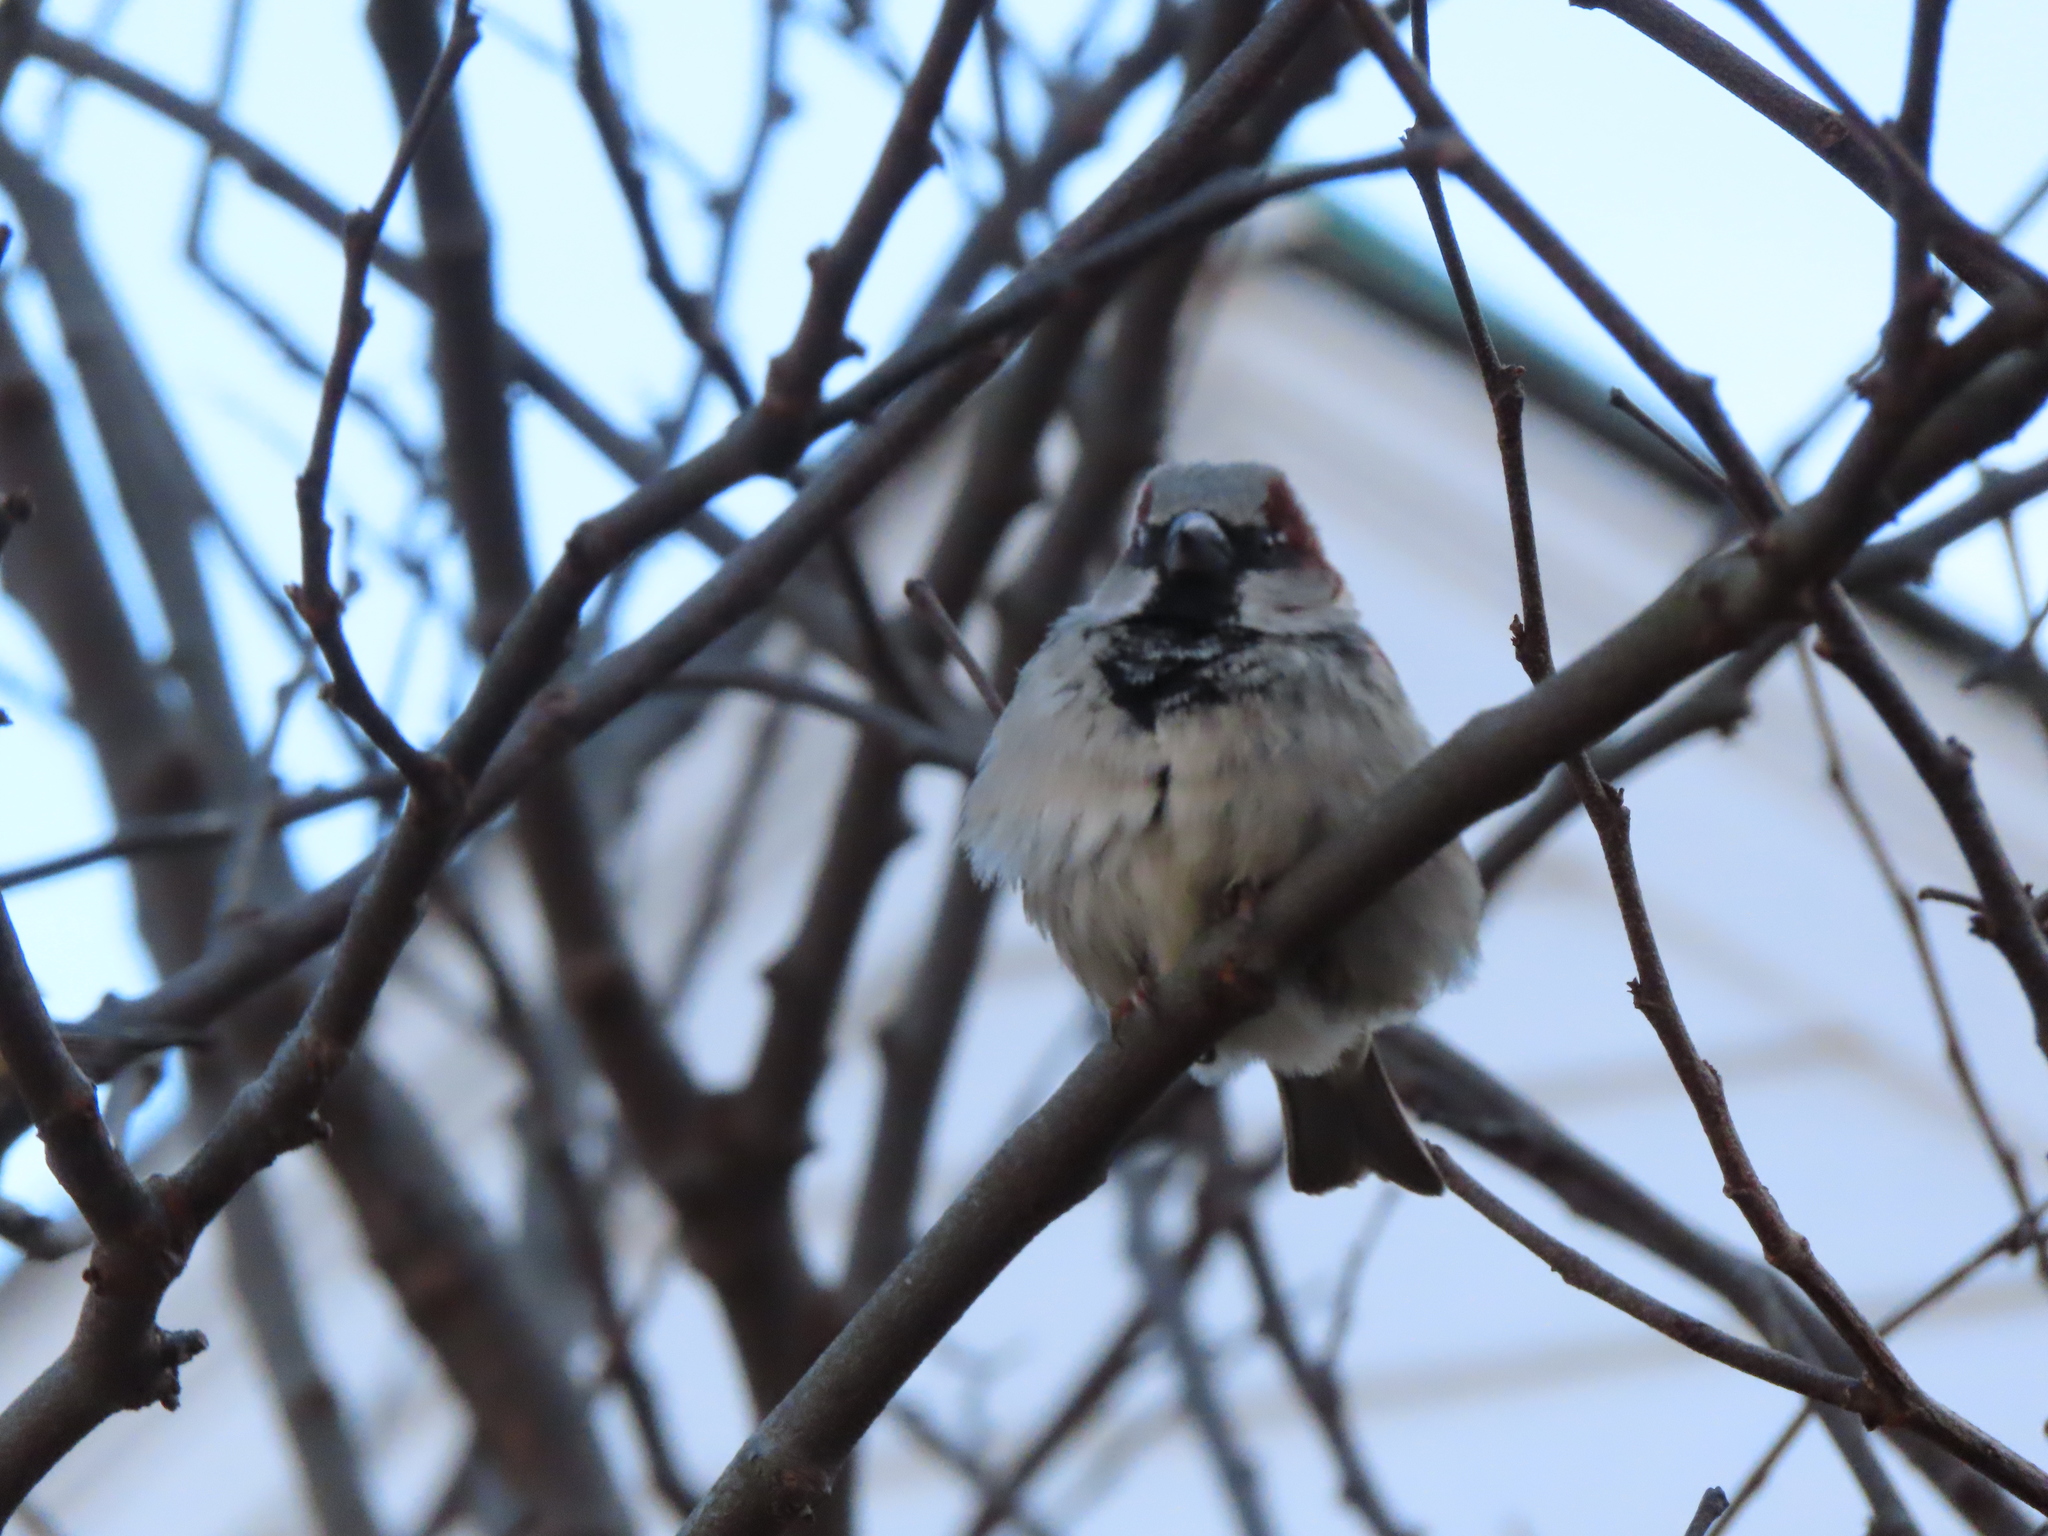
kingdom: Animalia
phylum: Chordata
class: Aves
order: Passeriformes
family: Passeridae
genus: Passer
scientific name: Passer domesticus
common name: House sparrow
